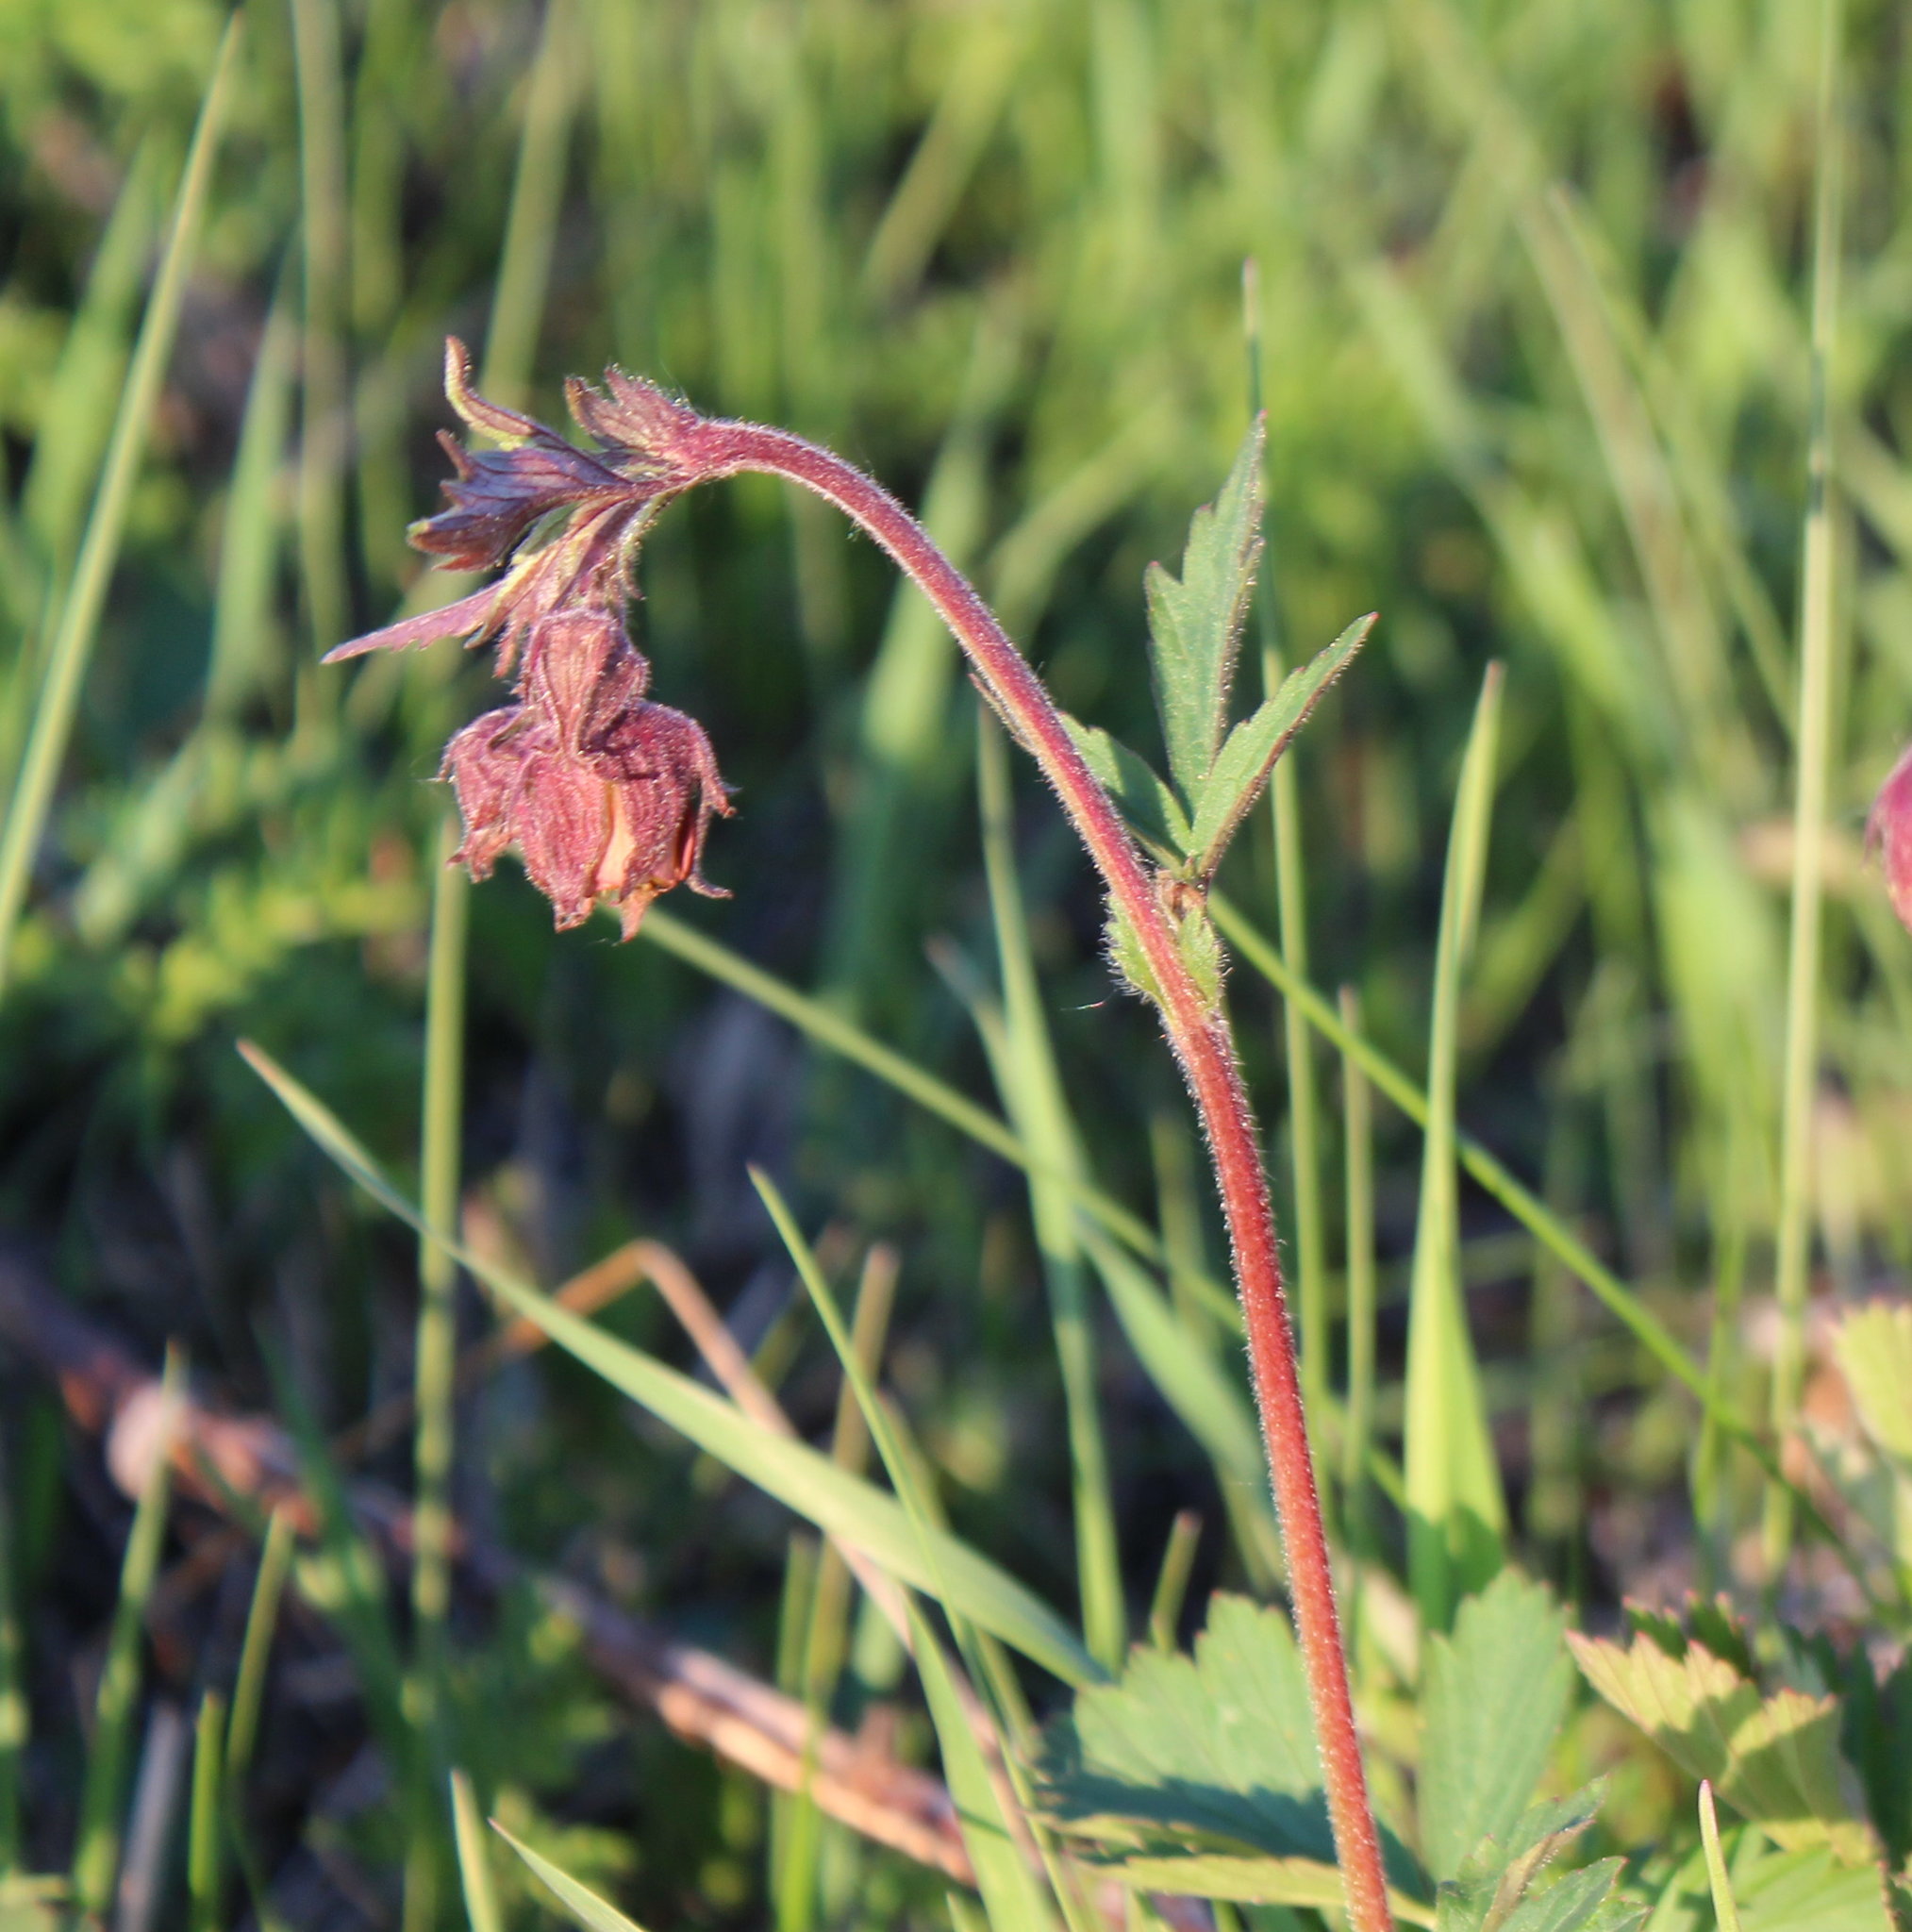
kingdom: Plantae
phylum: Tracheophyta
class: Magnoliopsida
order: Rosales
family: Rosaceae
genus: Geum
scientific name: Geum rivale
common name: Water avens
